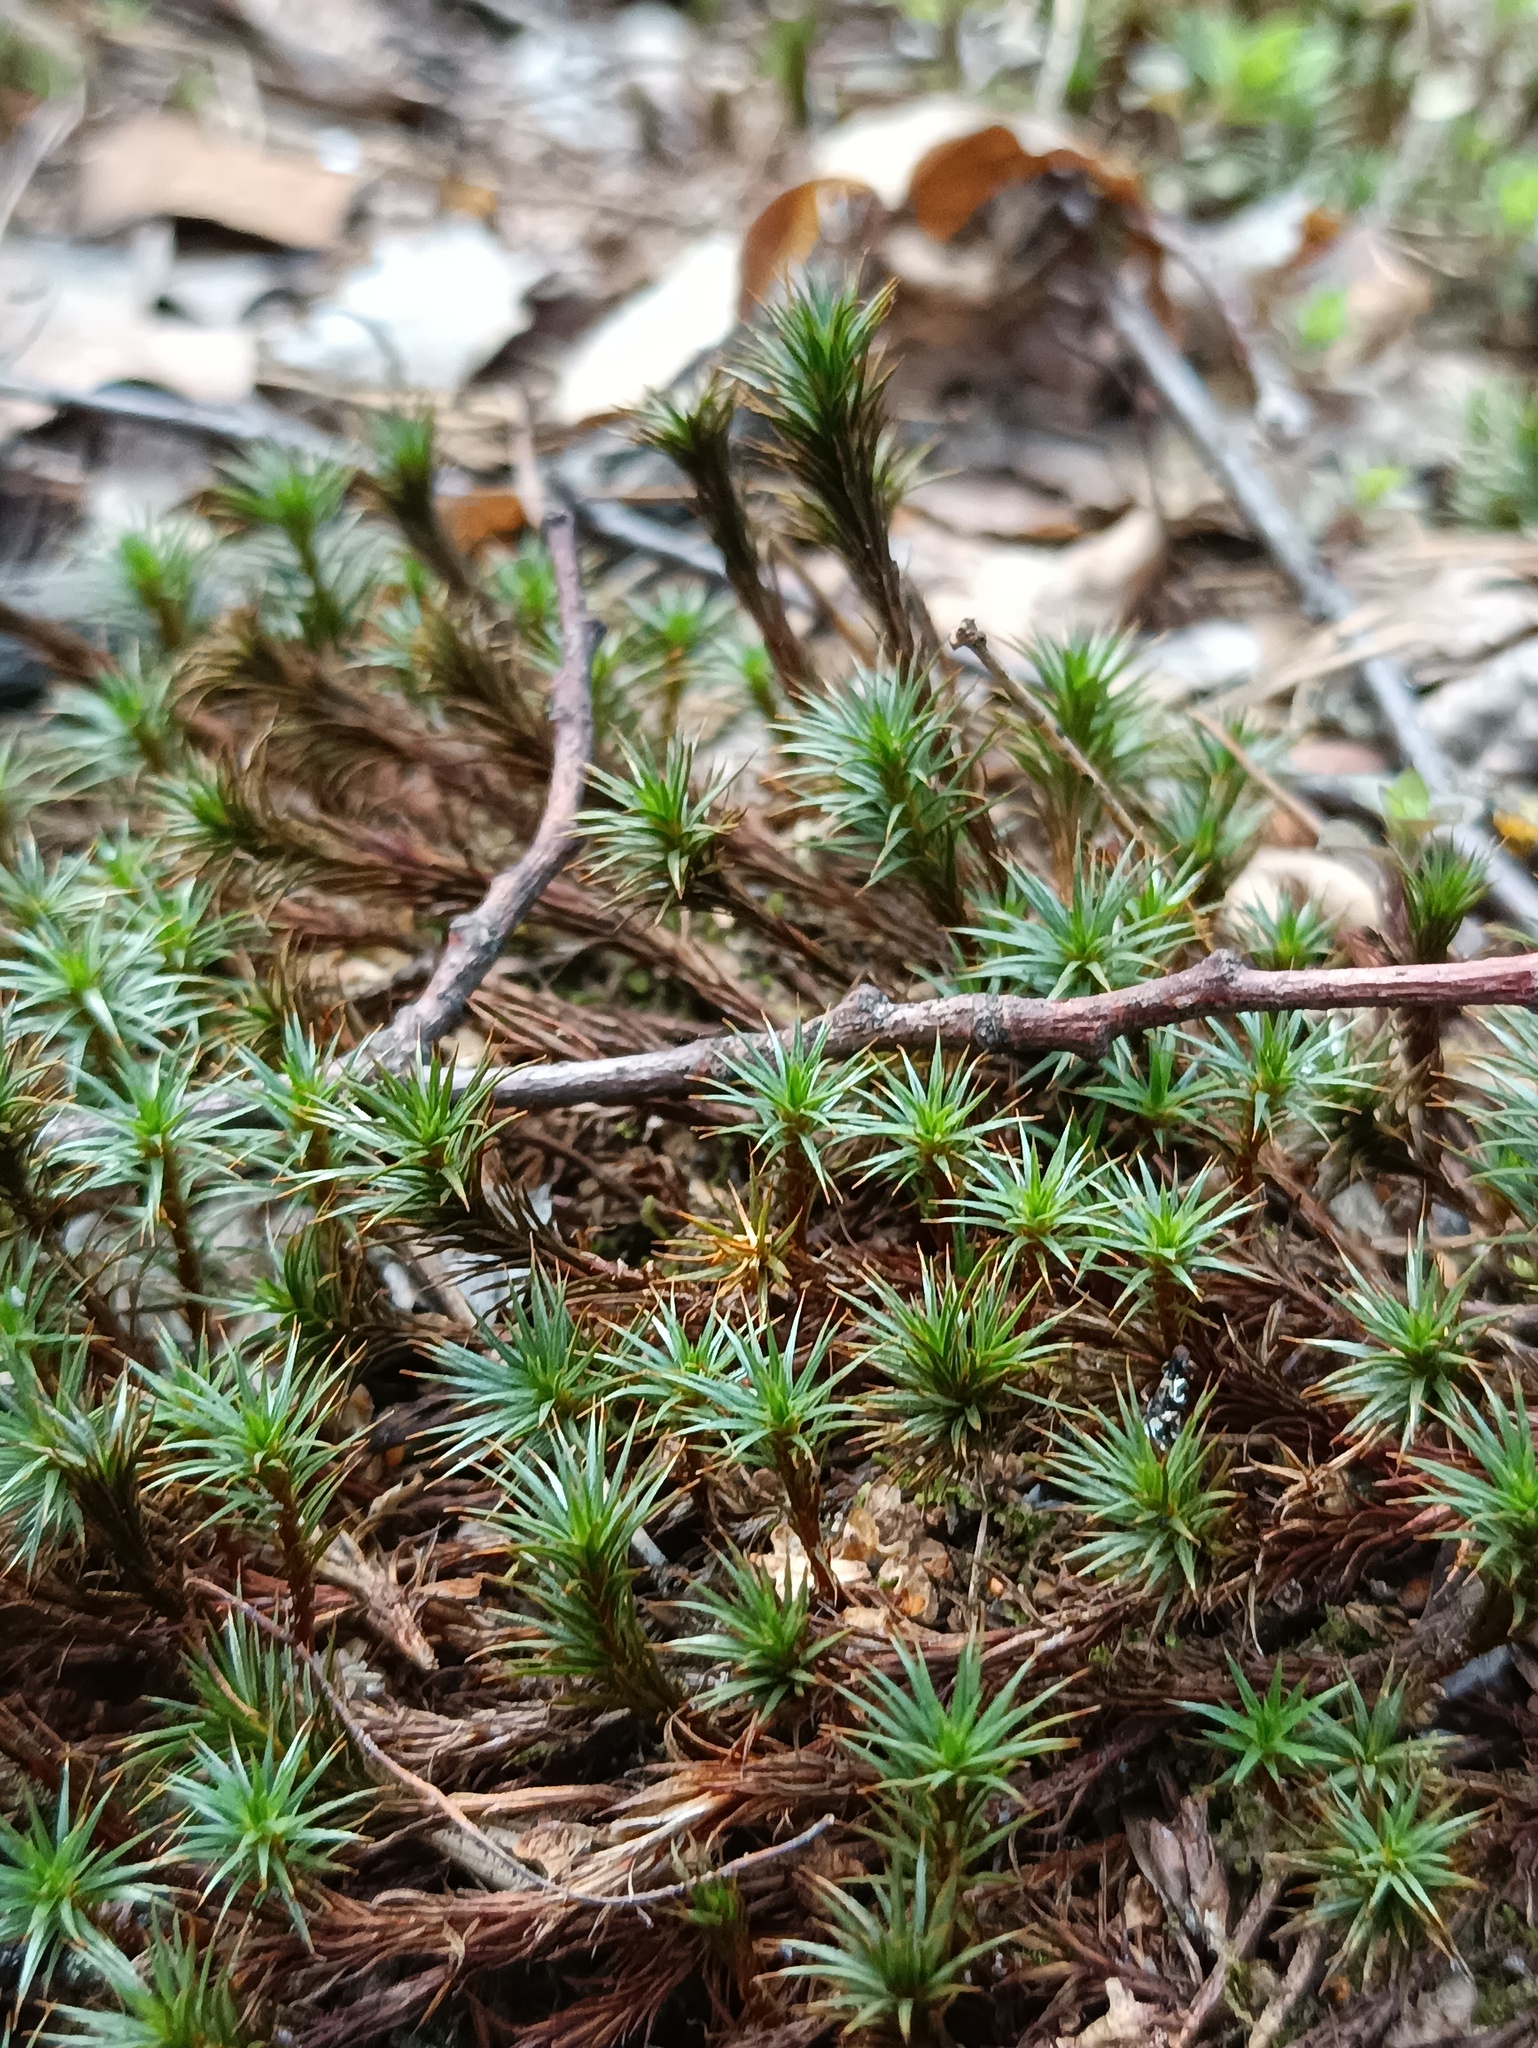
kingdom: Plantae
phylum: Bryophyta
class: Polytrichopsida
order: Polytrichales
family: Polytrichaceae
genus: Polytrichum
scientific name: Polytrichum juniperinum
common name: Juniper haircap moss
